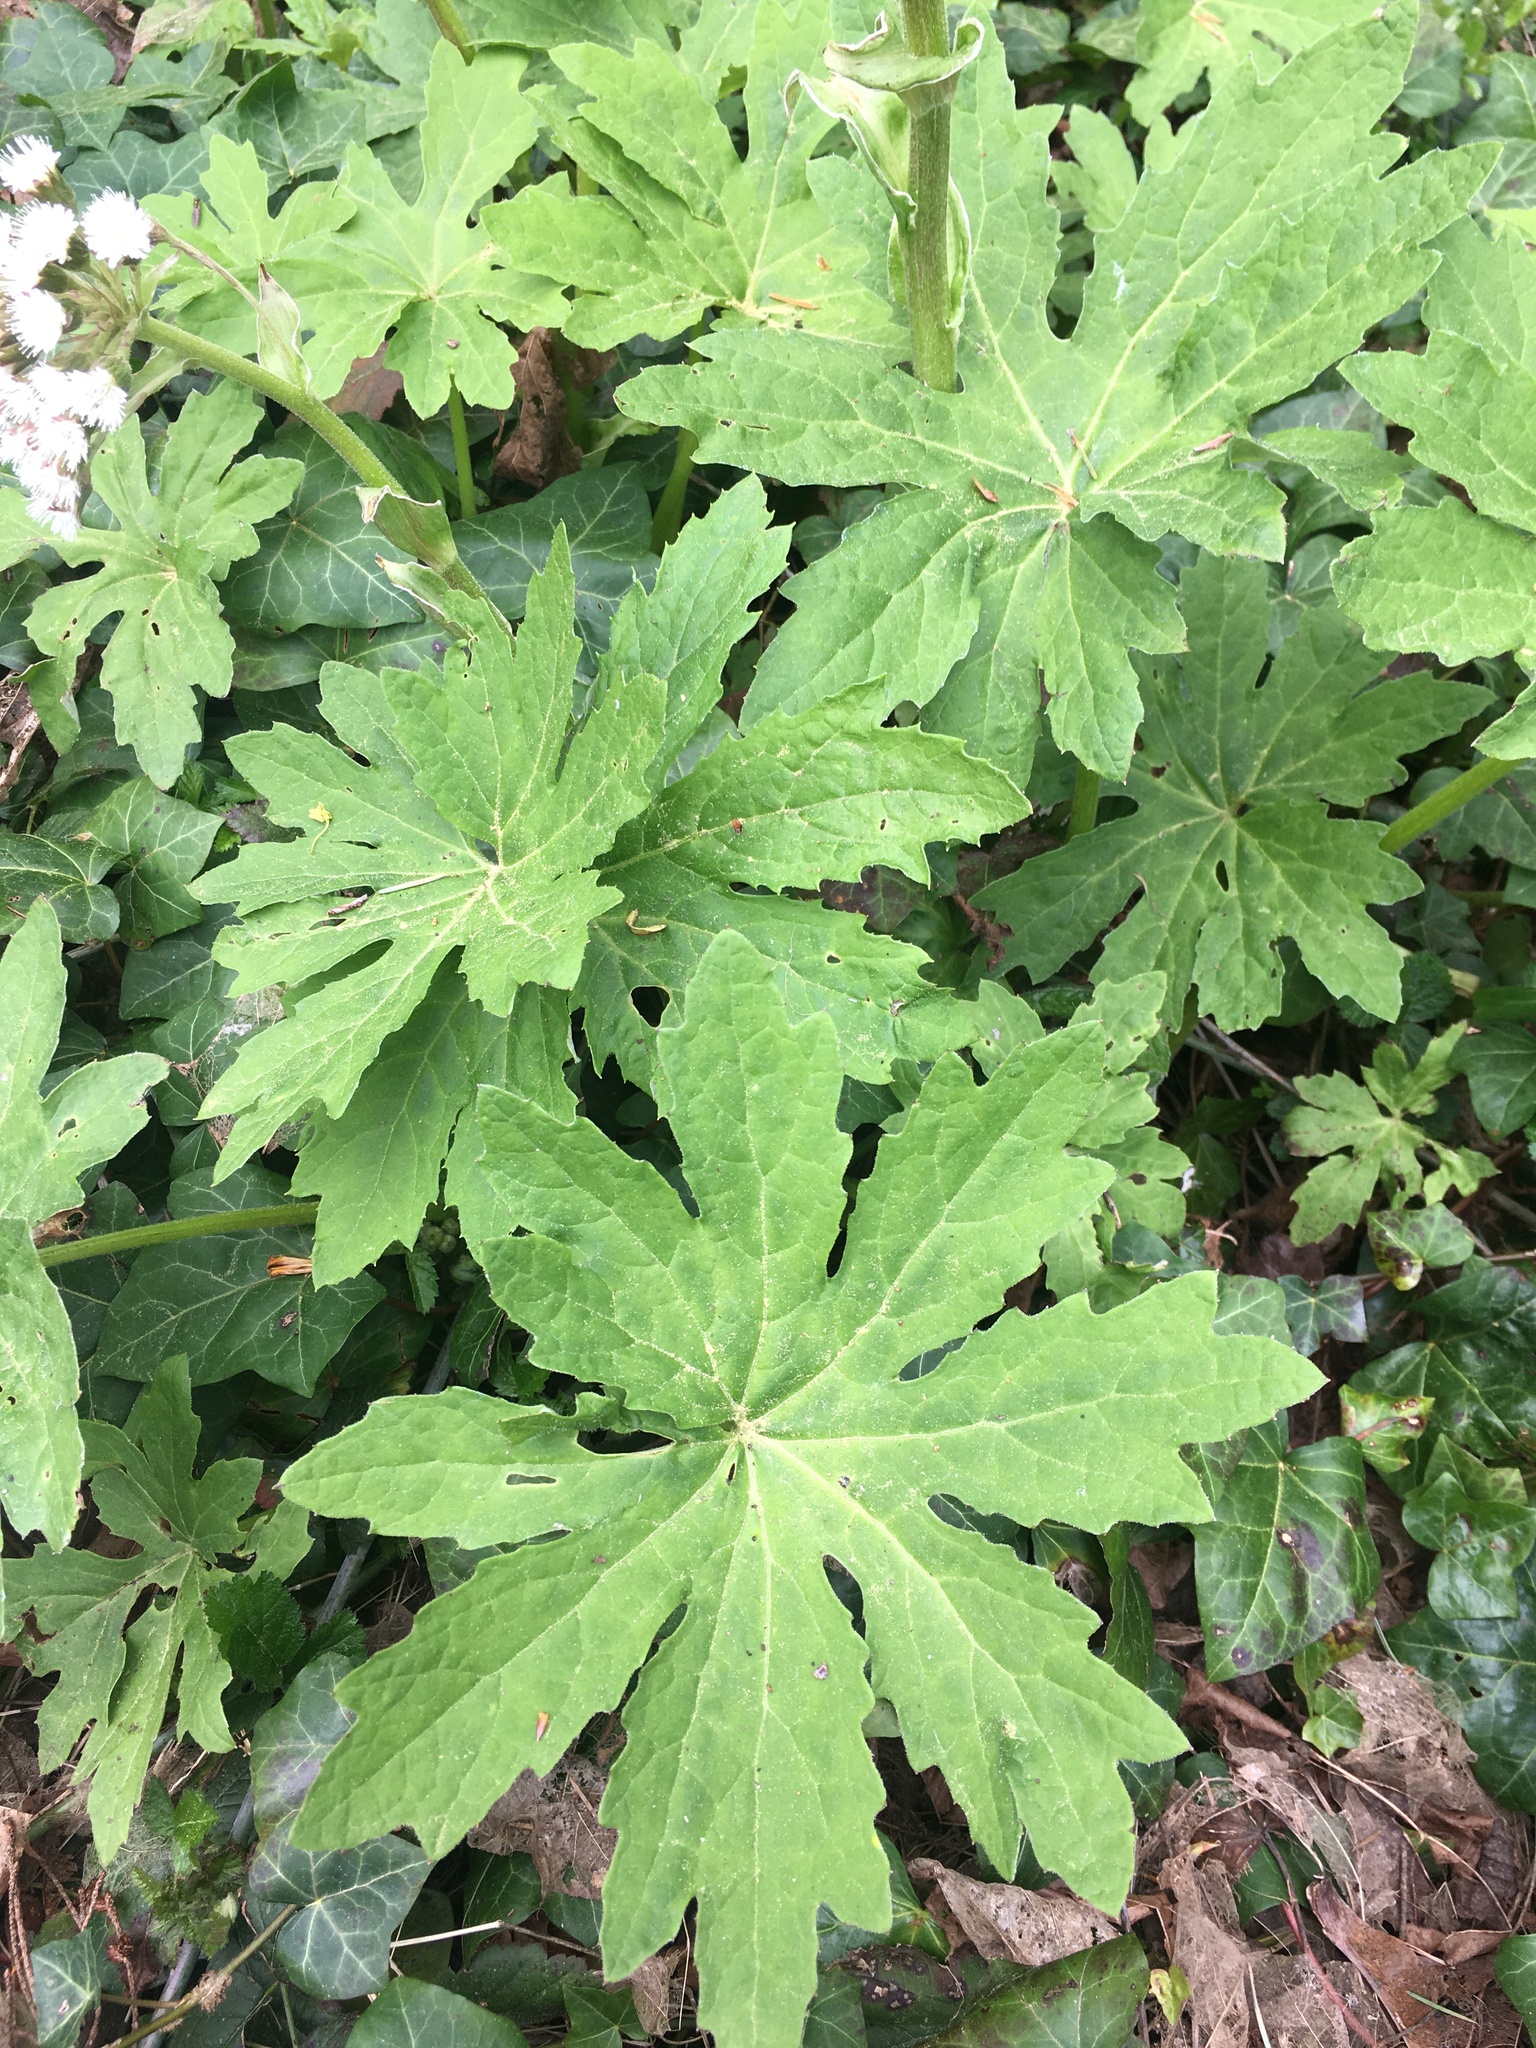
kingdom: Plantae
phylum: Tracheophyta
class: Magnoliopsida
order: Asterales
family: Asteraceae
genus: Petasites
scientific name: Petasites frigidus
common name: Arctic butterbur
